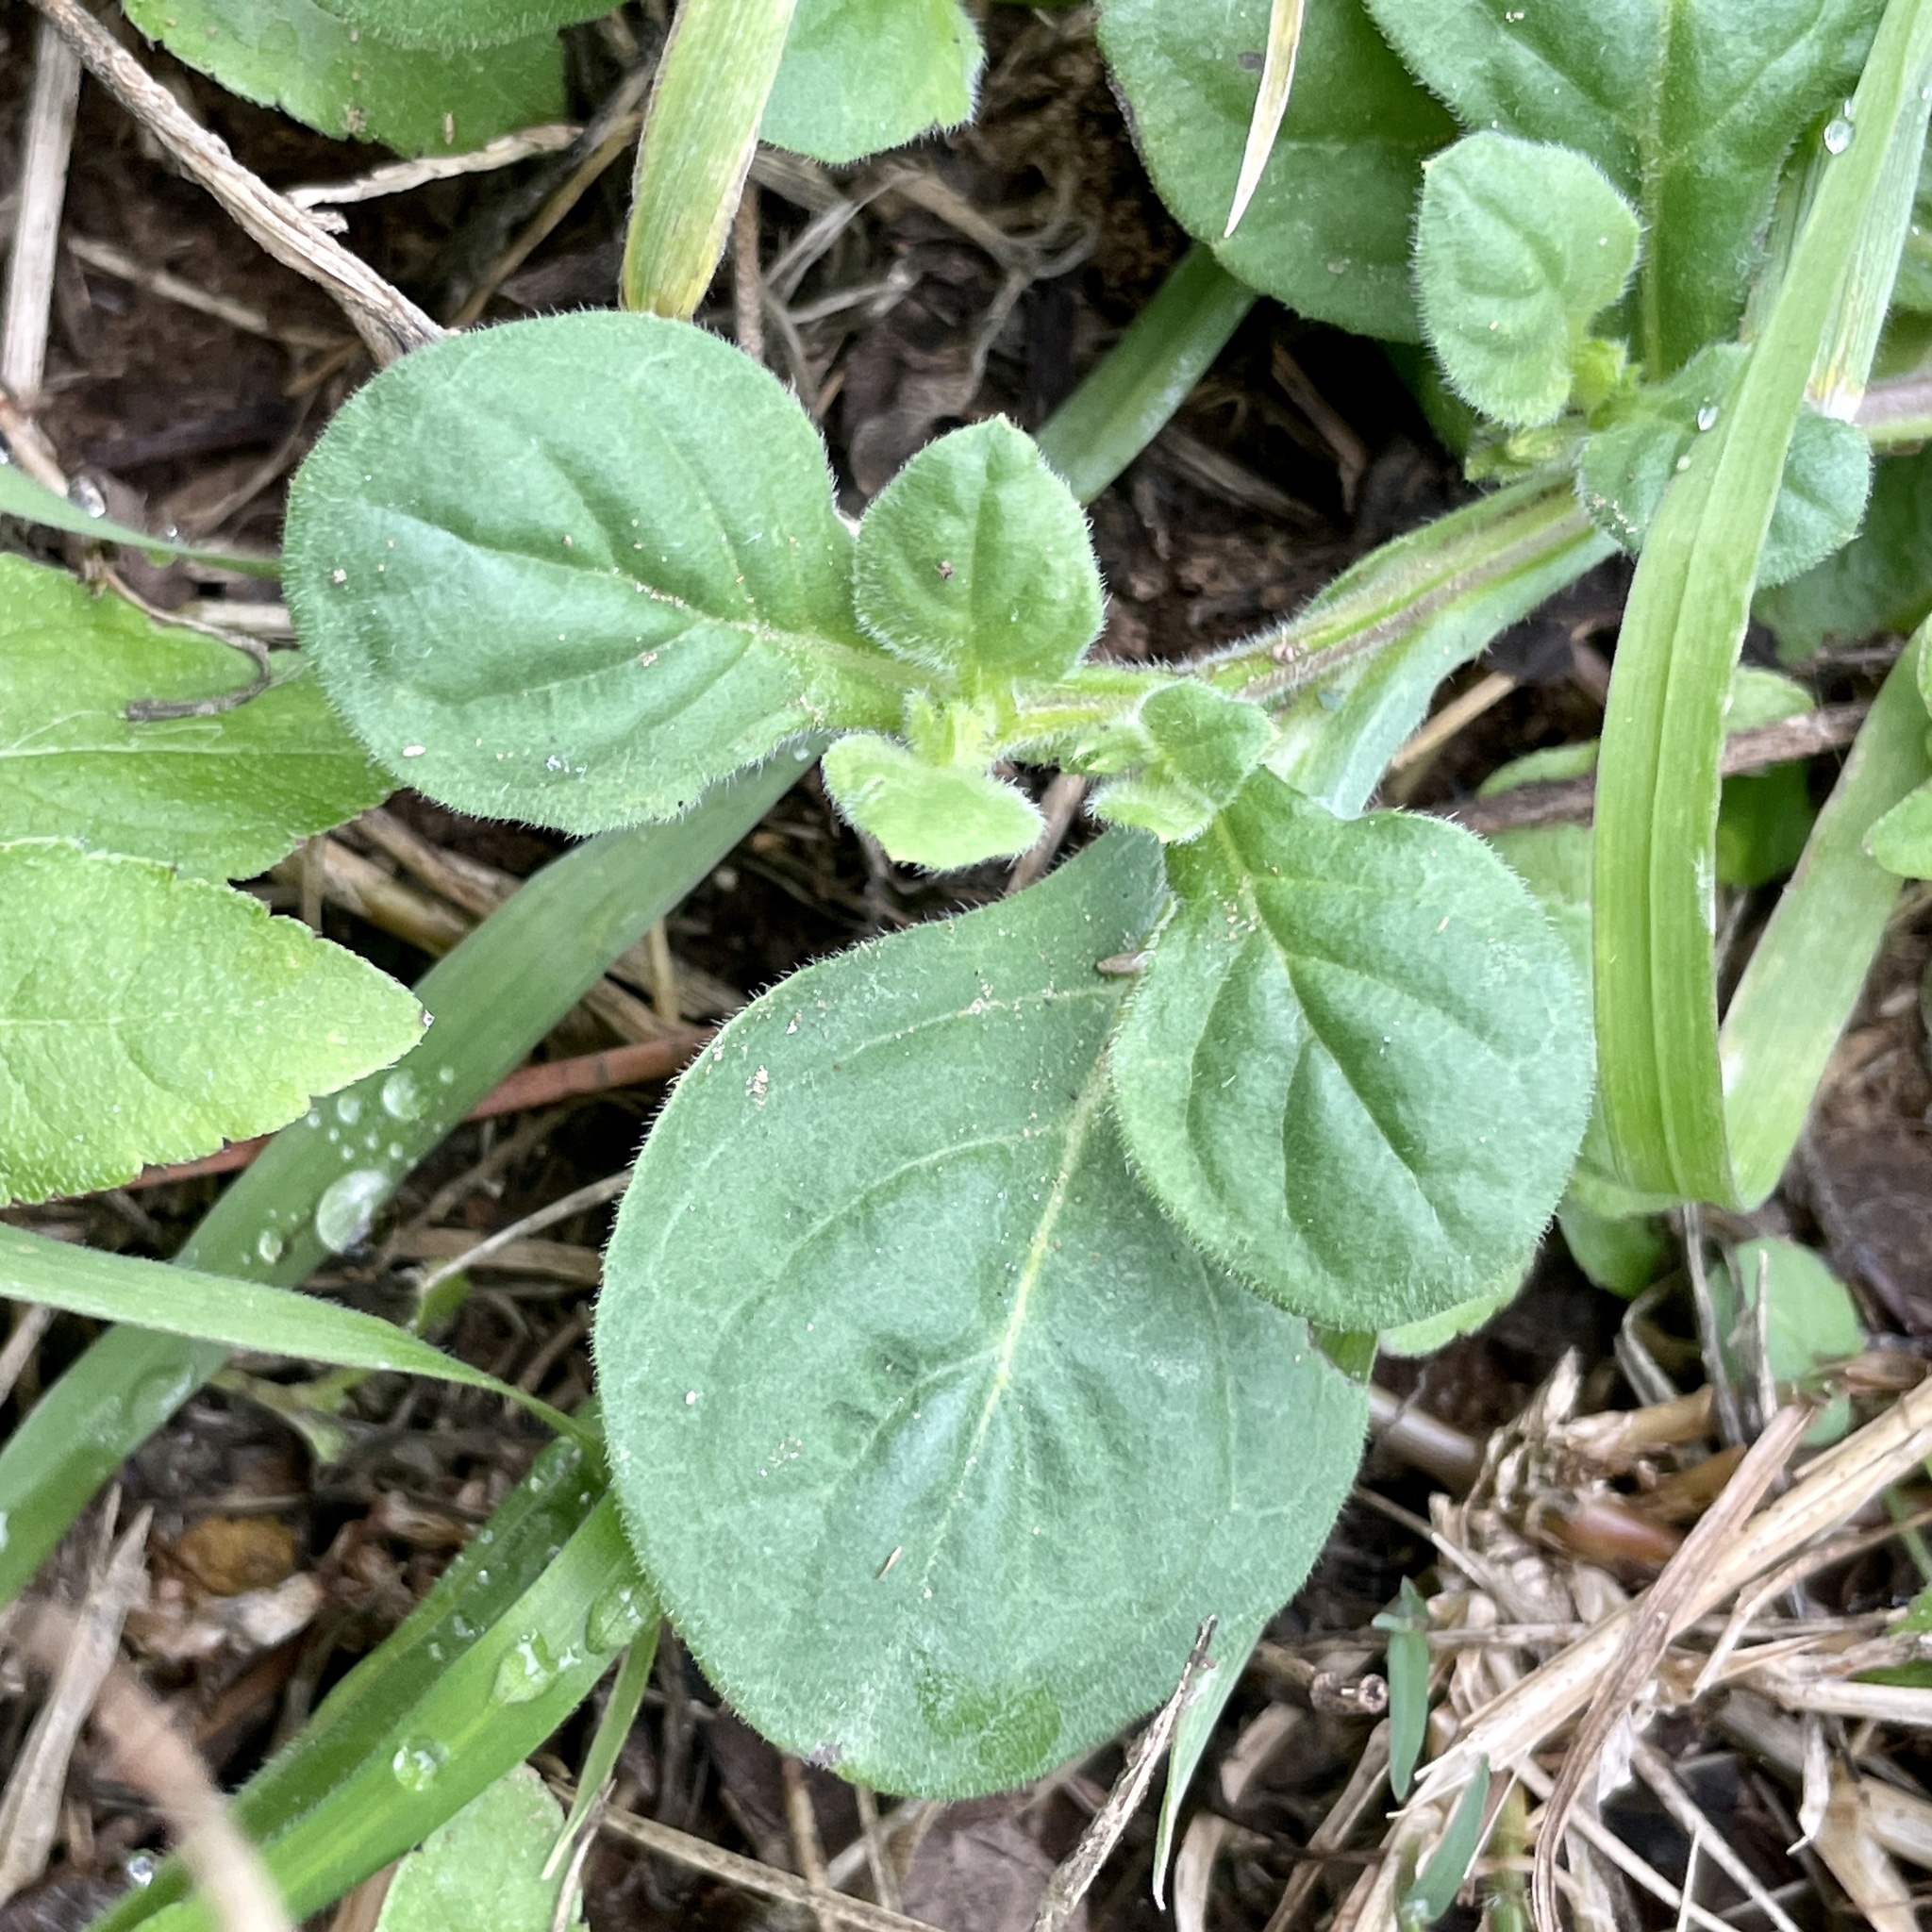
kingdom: Plantae
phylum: Tracheophyta
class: Magnoliopsida
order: Boraginales
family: Namaceae
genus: Nama
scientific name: Nama jamaicensis
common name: Jamaicanweed
